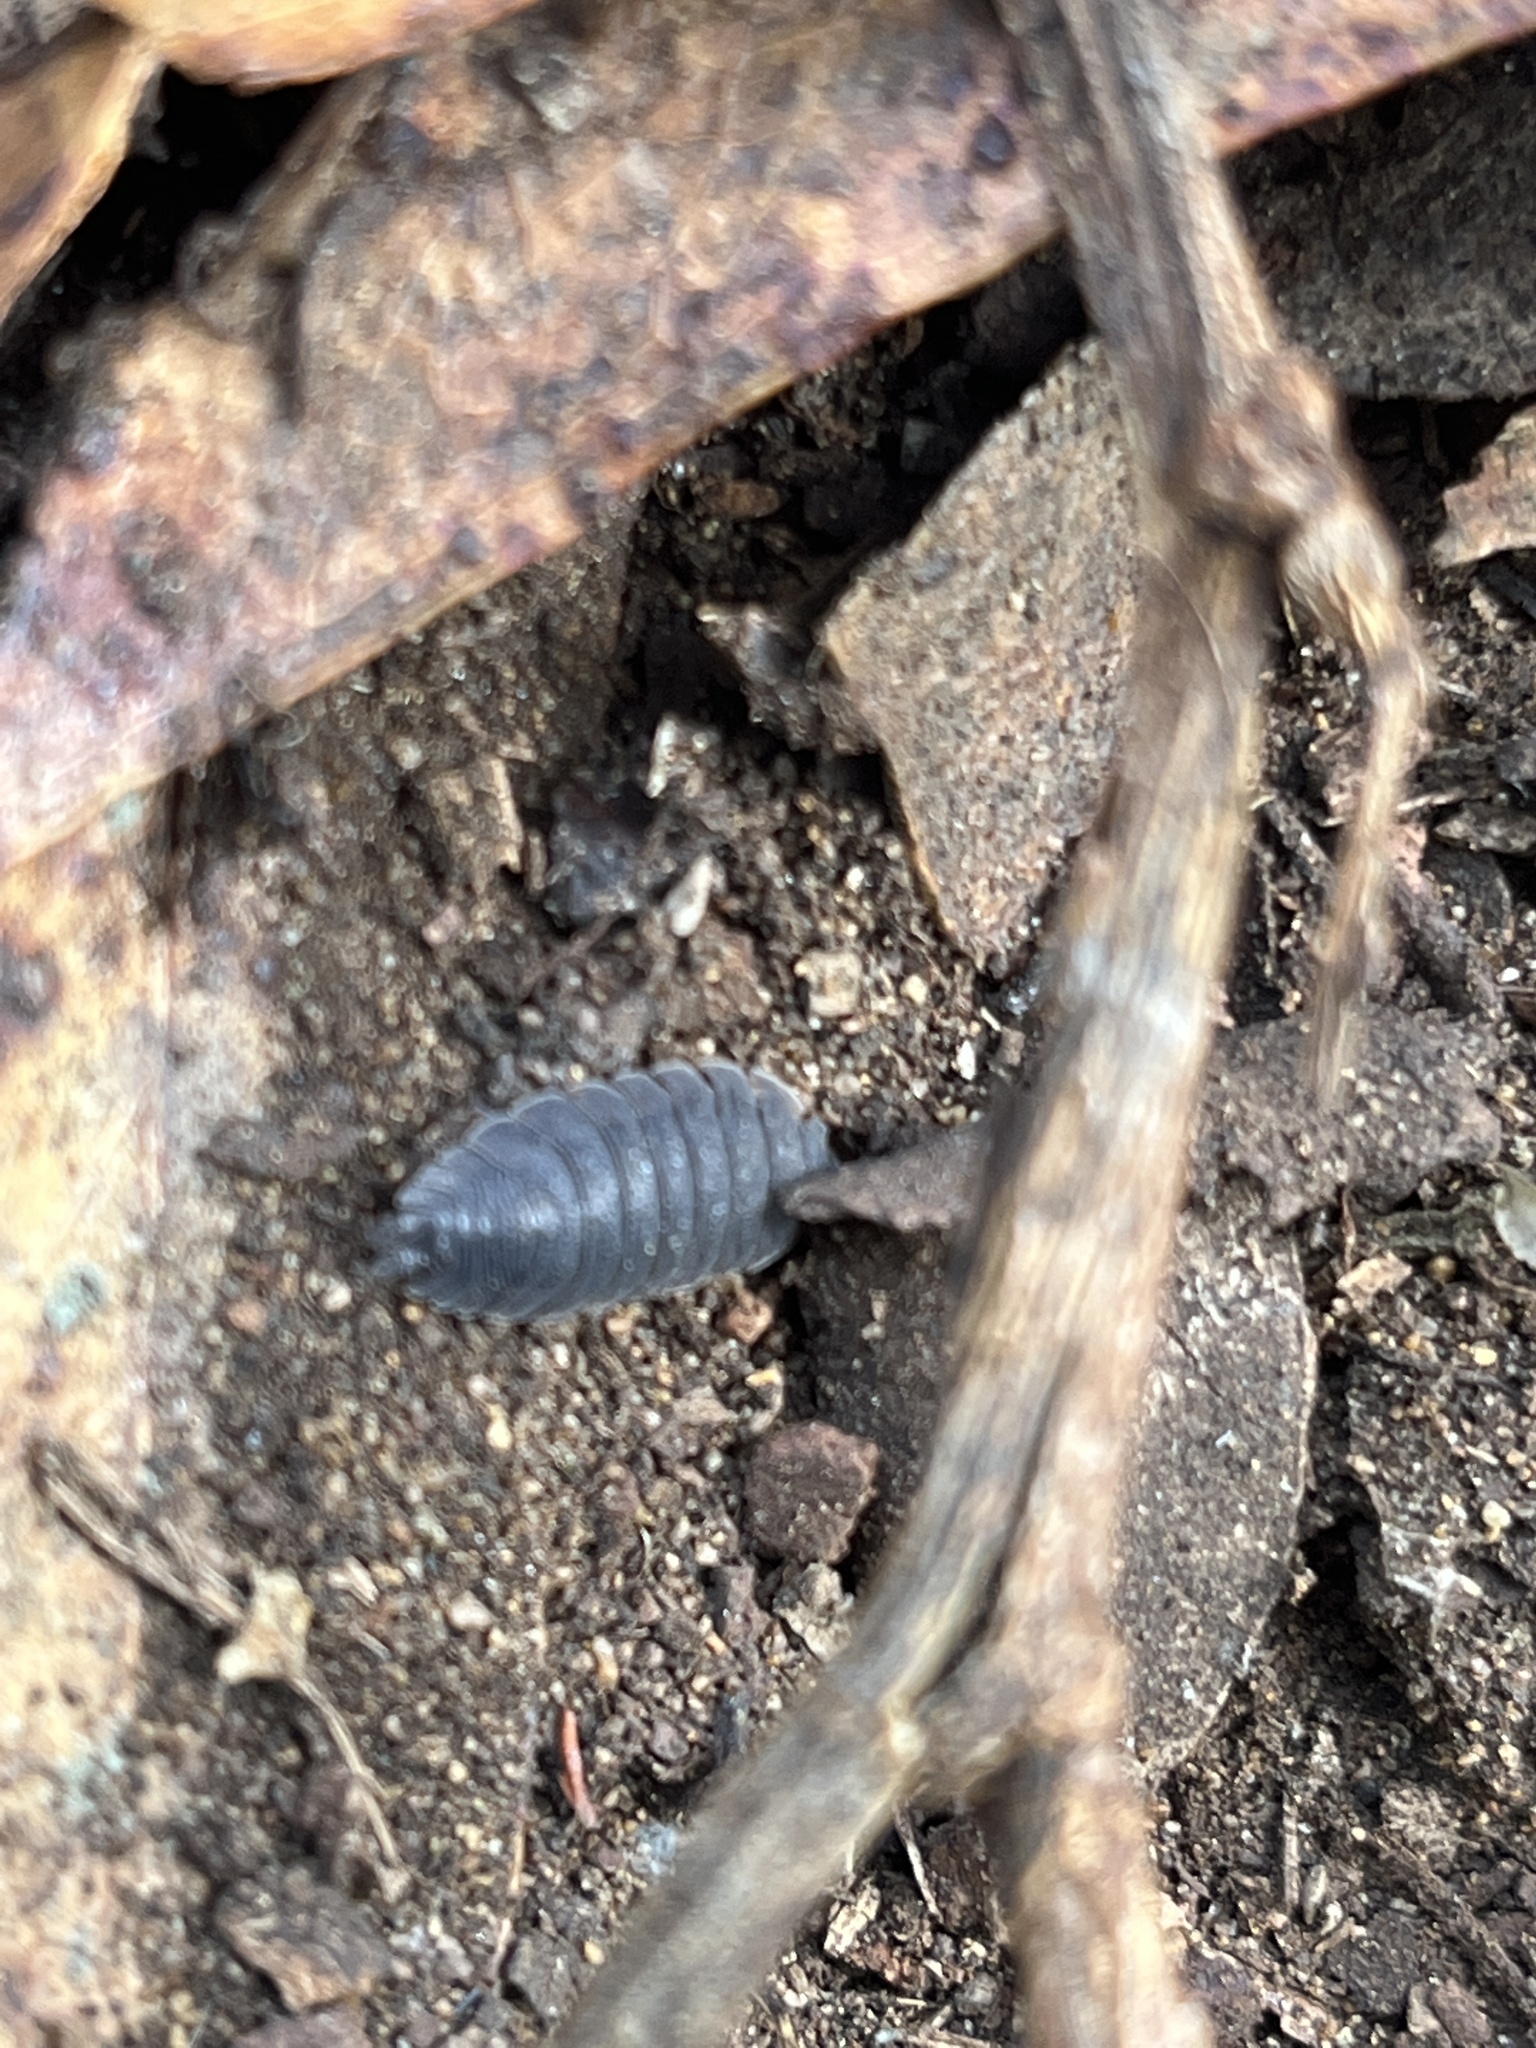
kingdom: Animalia
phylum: Arthropoda
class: Malacostraca
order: Isopoda
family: Porcellionidae
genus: Porcellio
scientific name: Porcellio scaber
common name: Common rough woodlouse
